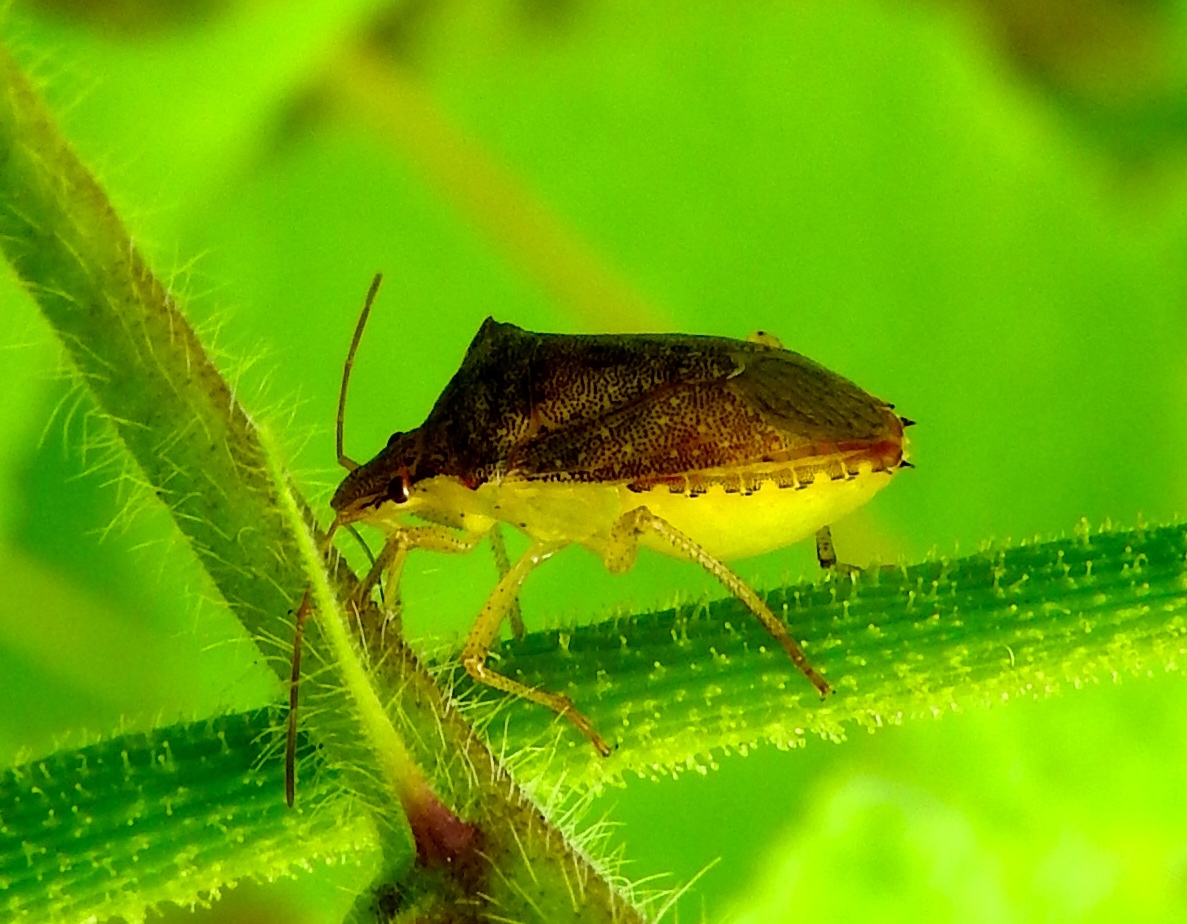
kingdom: Animalia
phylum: Arthropoda
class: Insecta
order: Hemiptera
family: Pentatomidae
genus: Euschistus
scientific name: Euschistus
